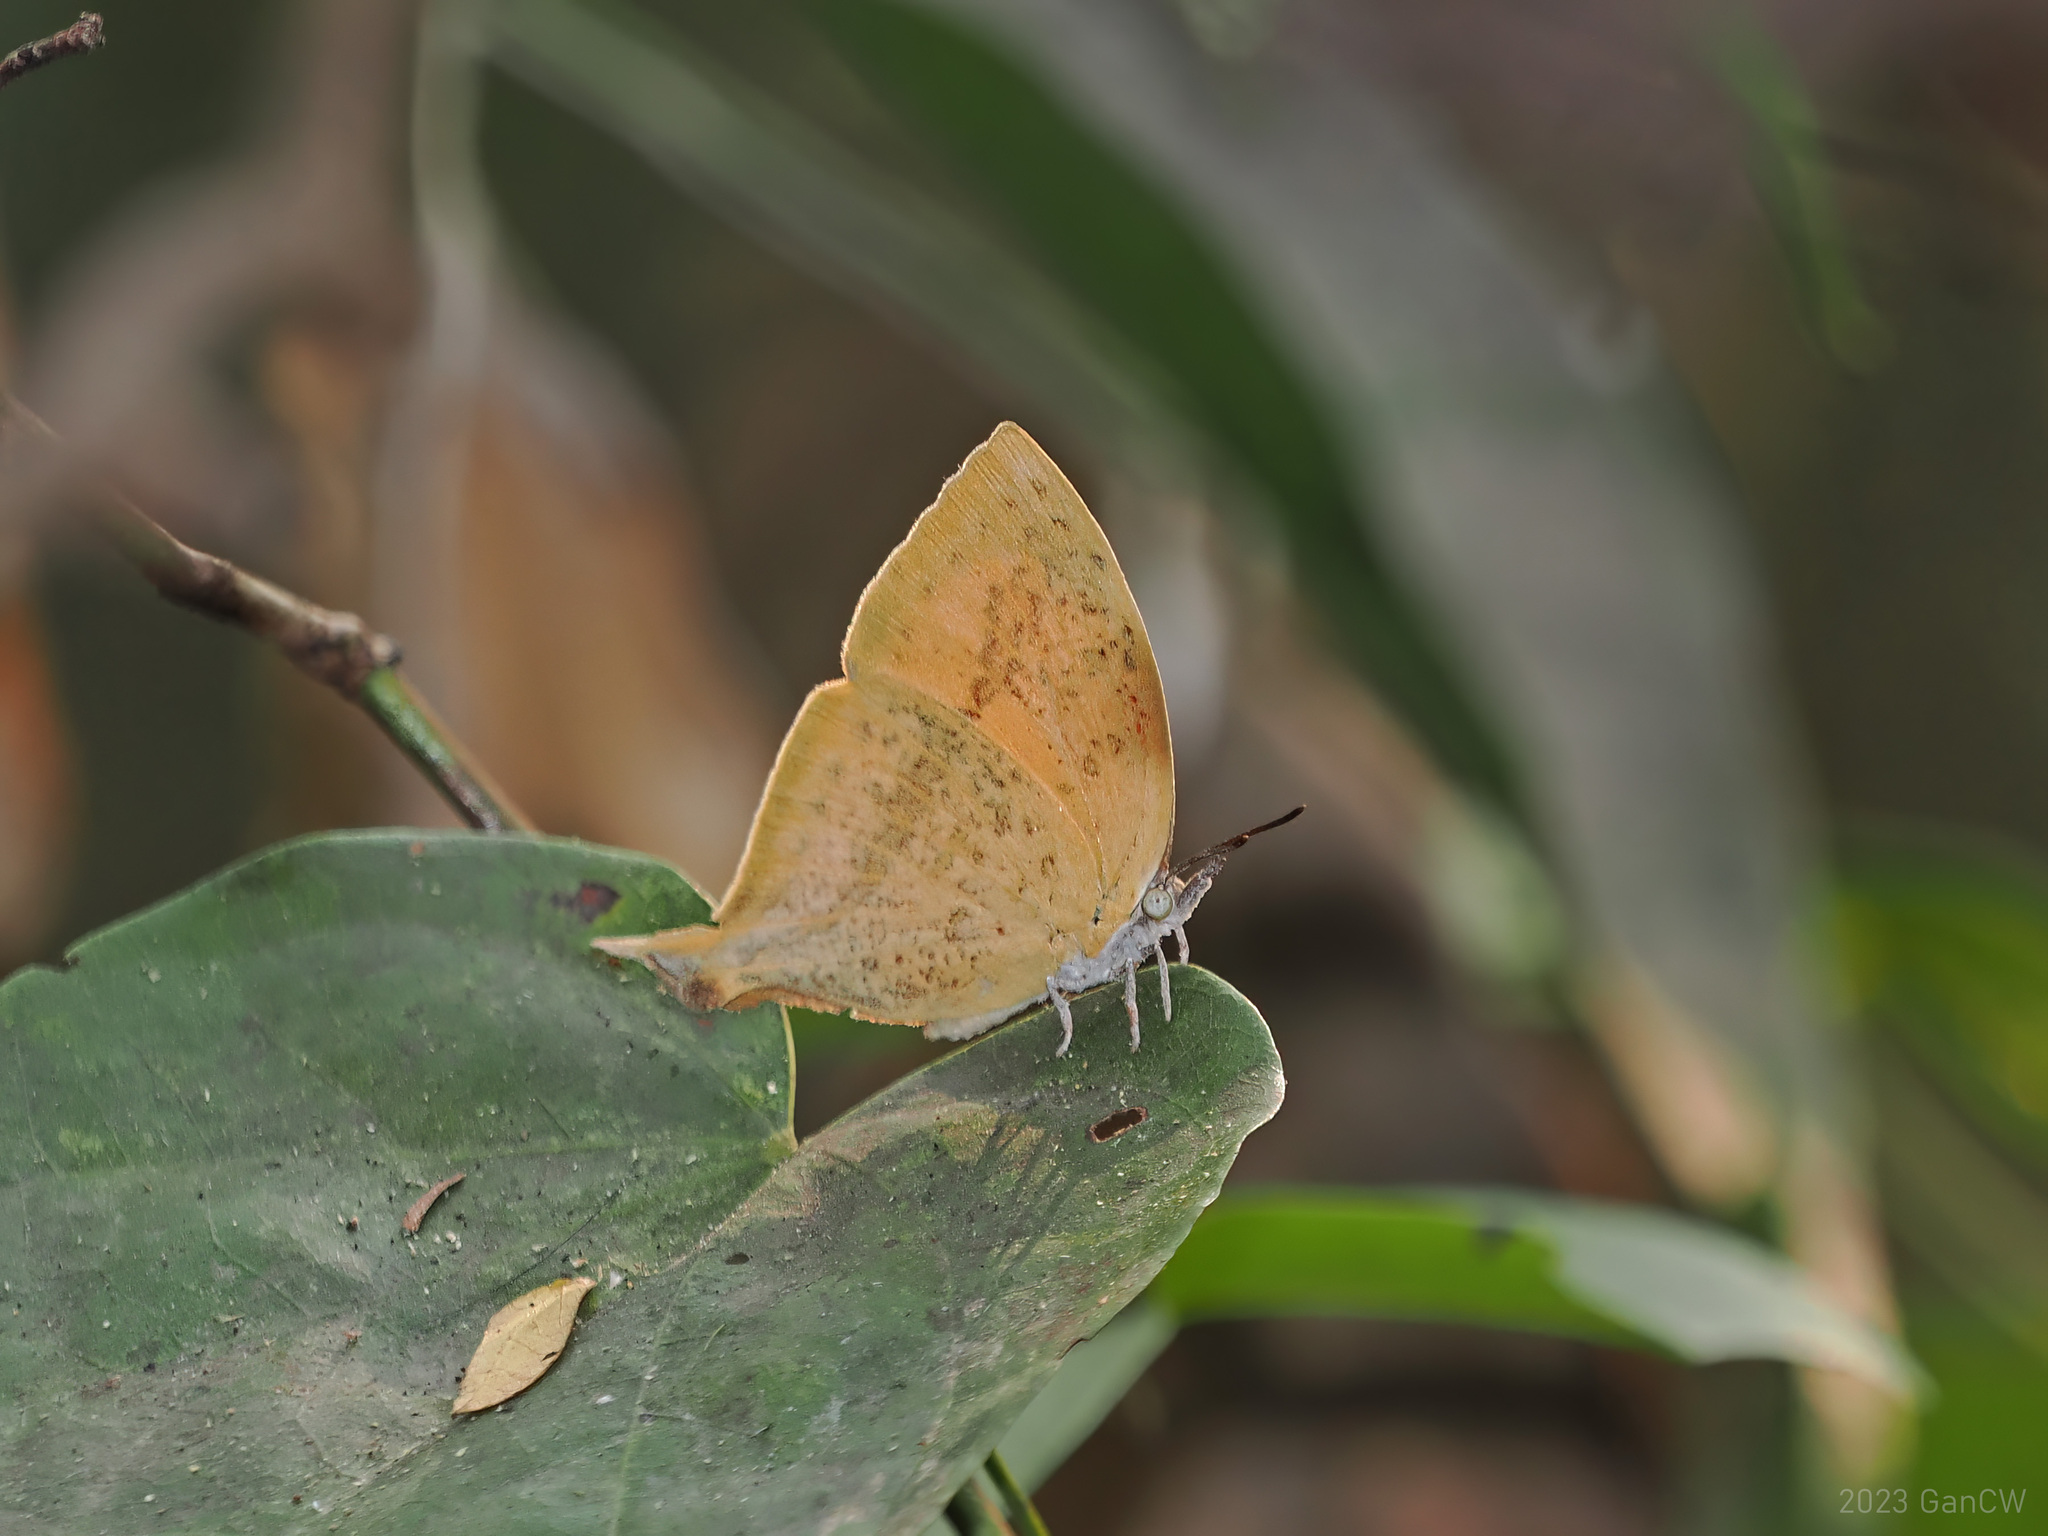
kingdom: Animalia
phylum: Arthropoda
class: Insecta
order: Lepidoptera
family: Lycaenidae
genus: Loxura
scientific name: Loxura atymnus
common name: Common yamfly
